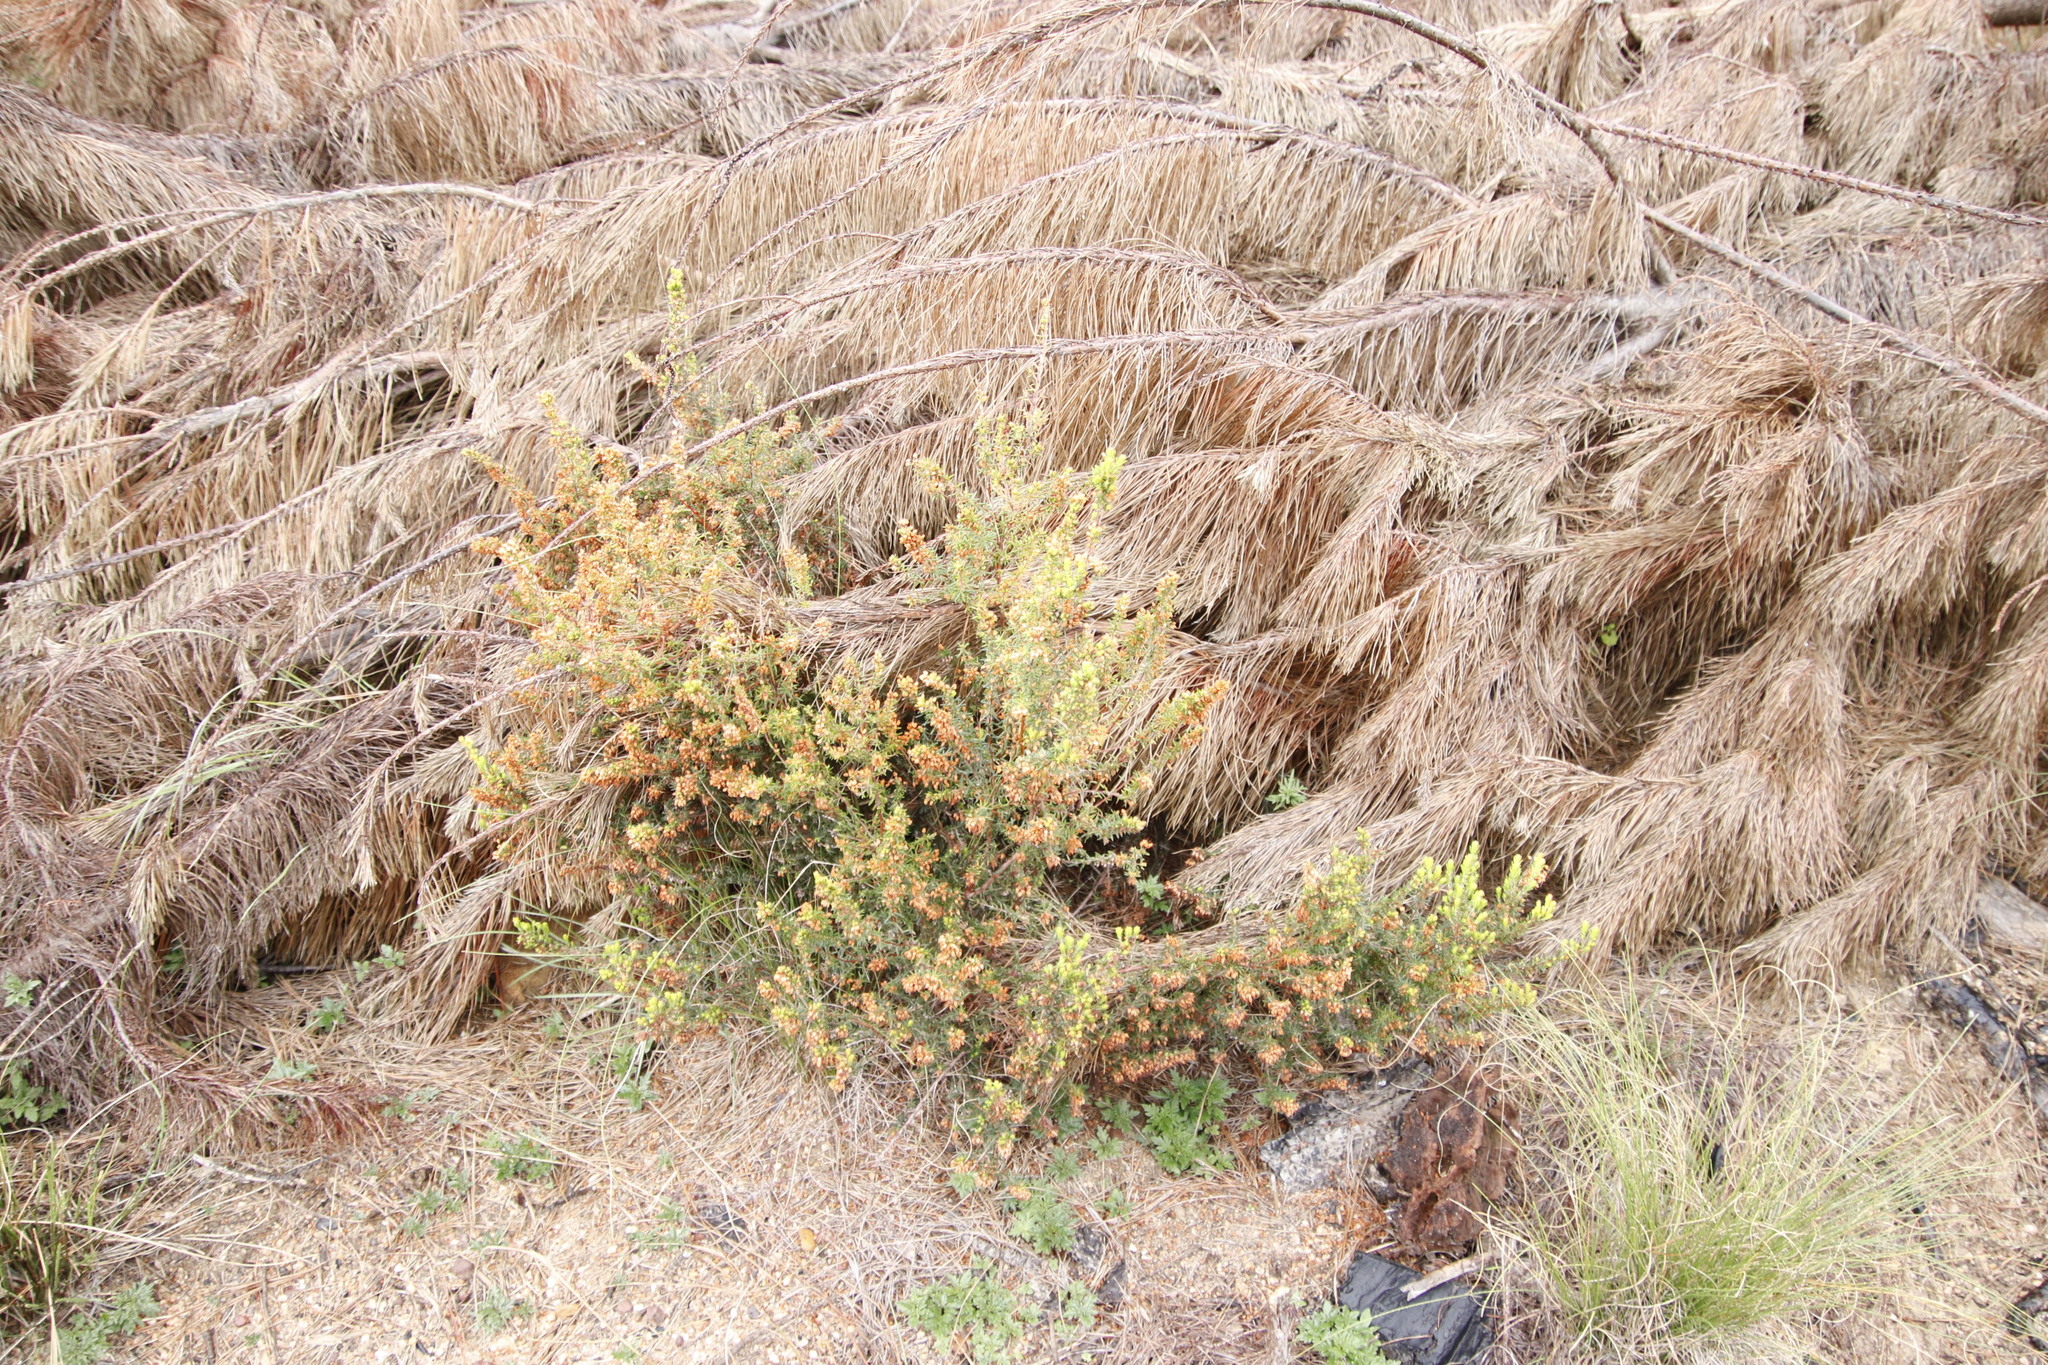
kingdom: Plantae
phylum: Tracheophyta
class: Magnoliopsida
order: Ericales
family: Ericaceae
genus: Erica
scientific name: Erica nudiflora
